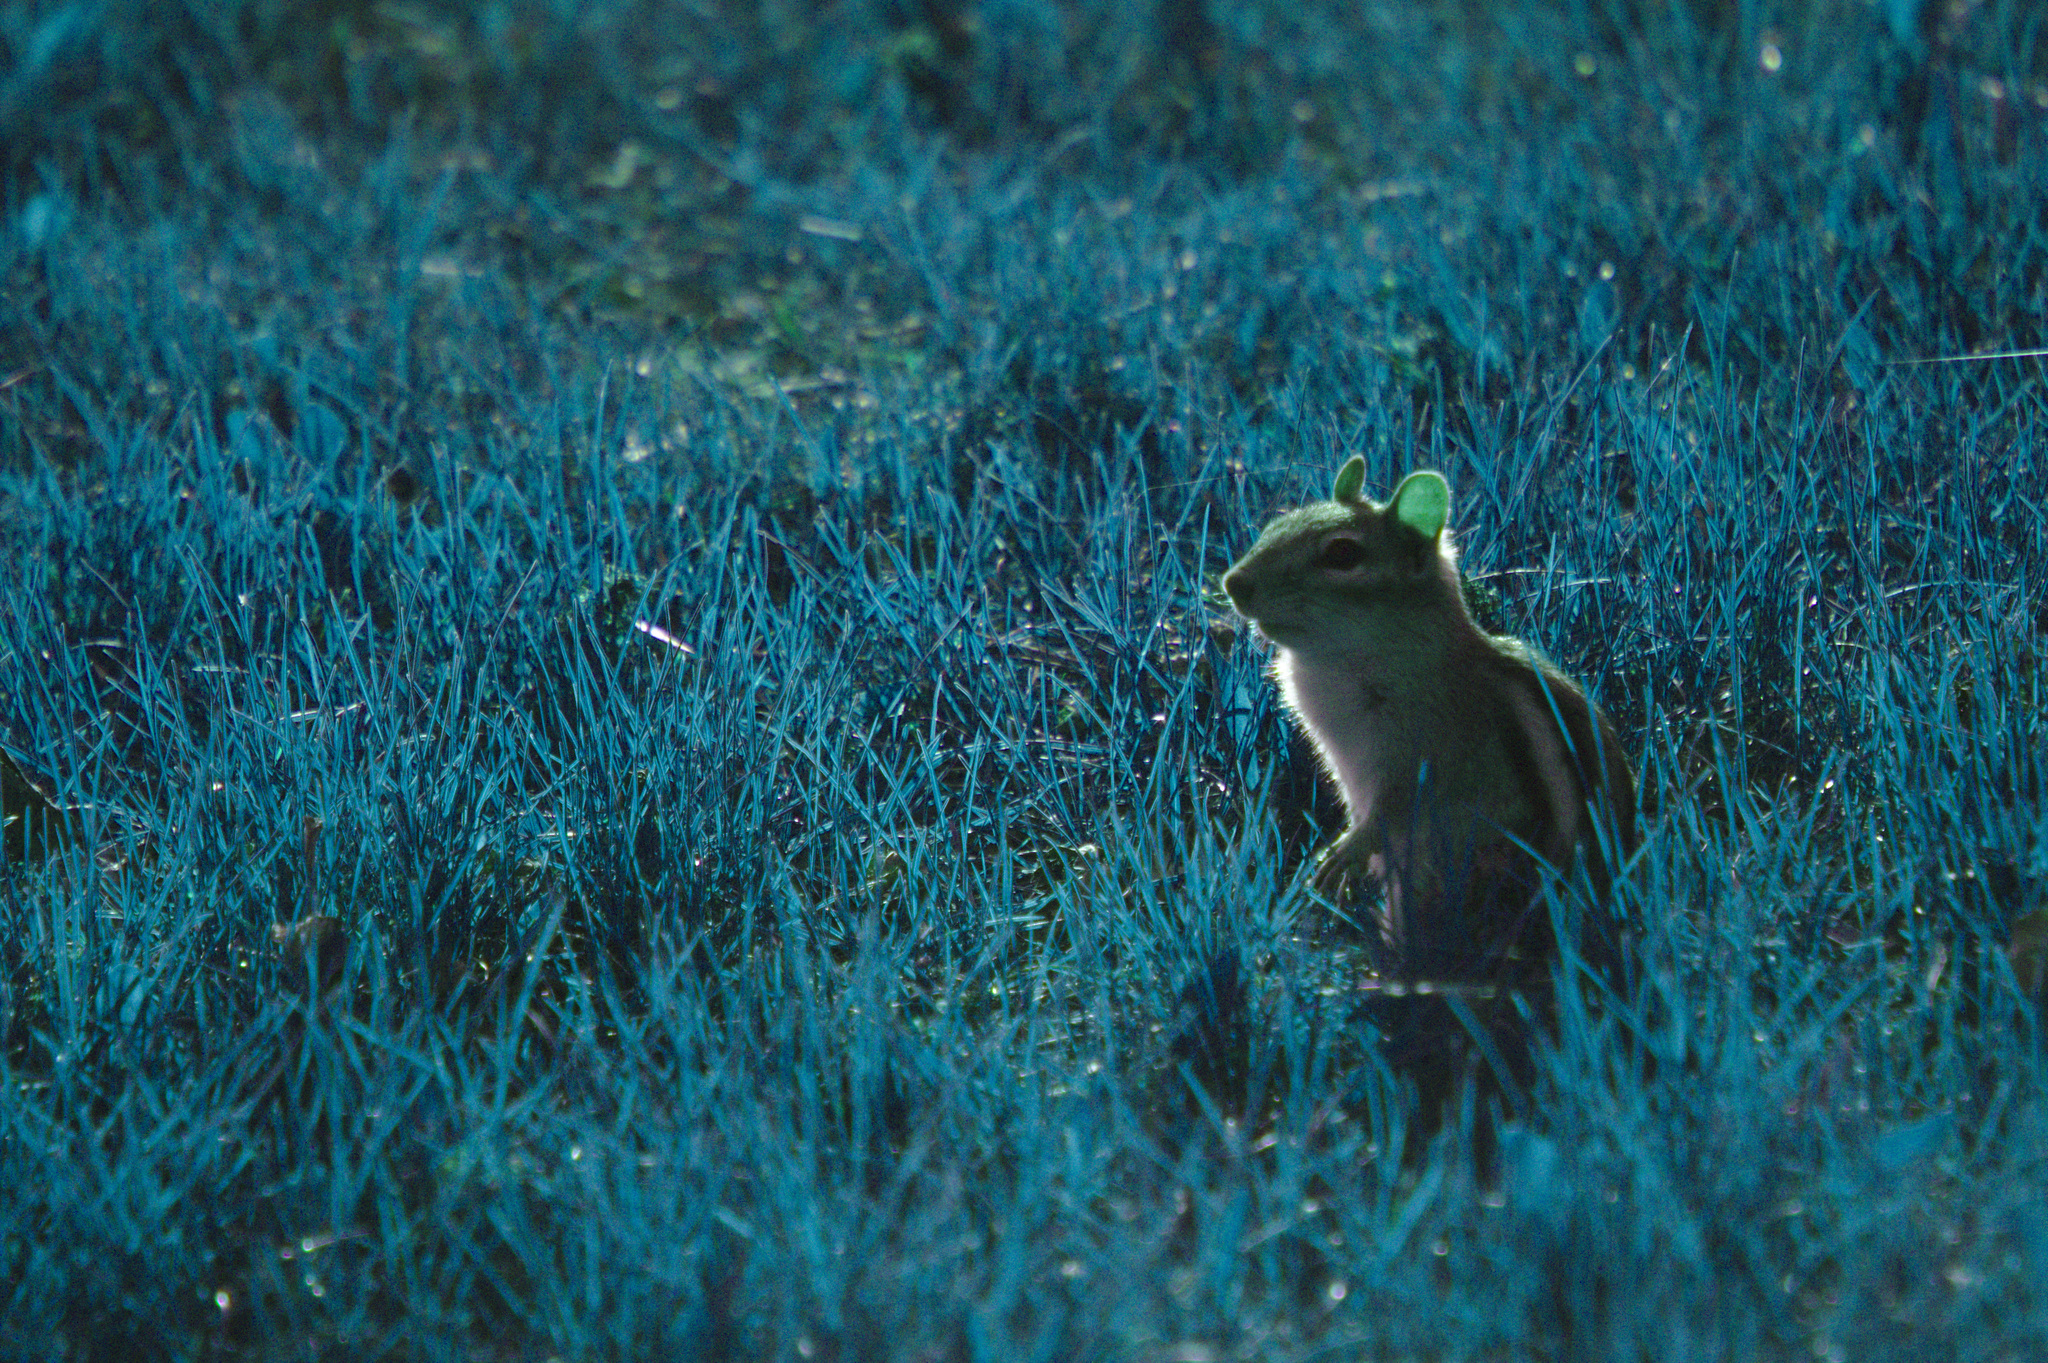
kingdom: Animalia
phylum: Chordata
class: Mammalia
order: Rodentia
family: Sciuridae
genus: Tamias
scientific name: Tamias striatus
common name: Eastern chipmunk
